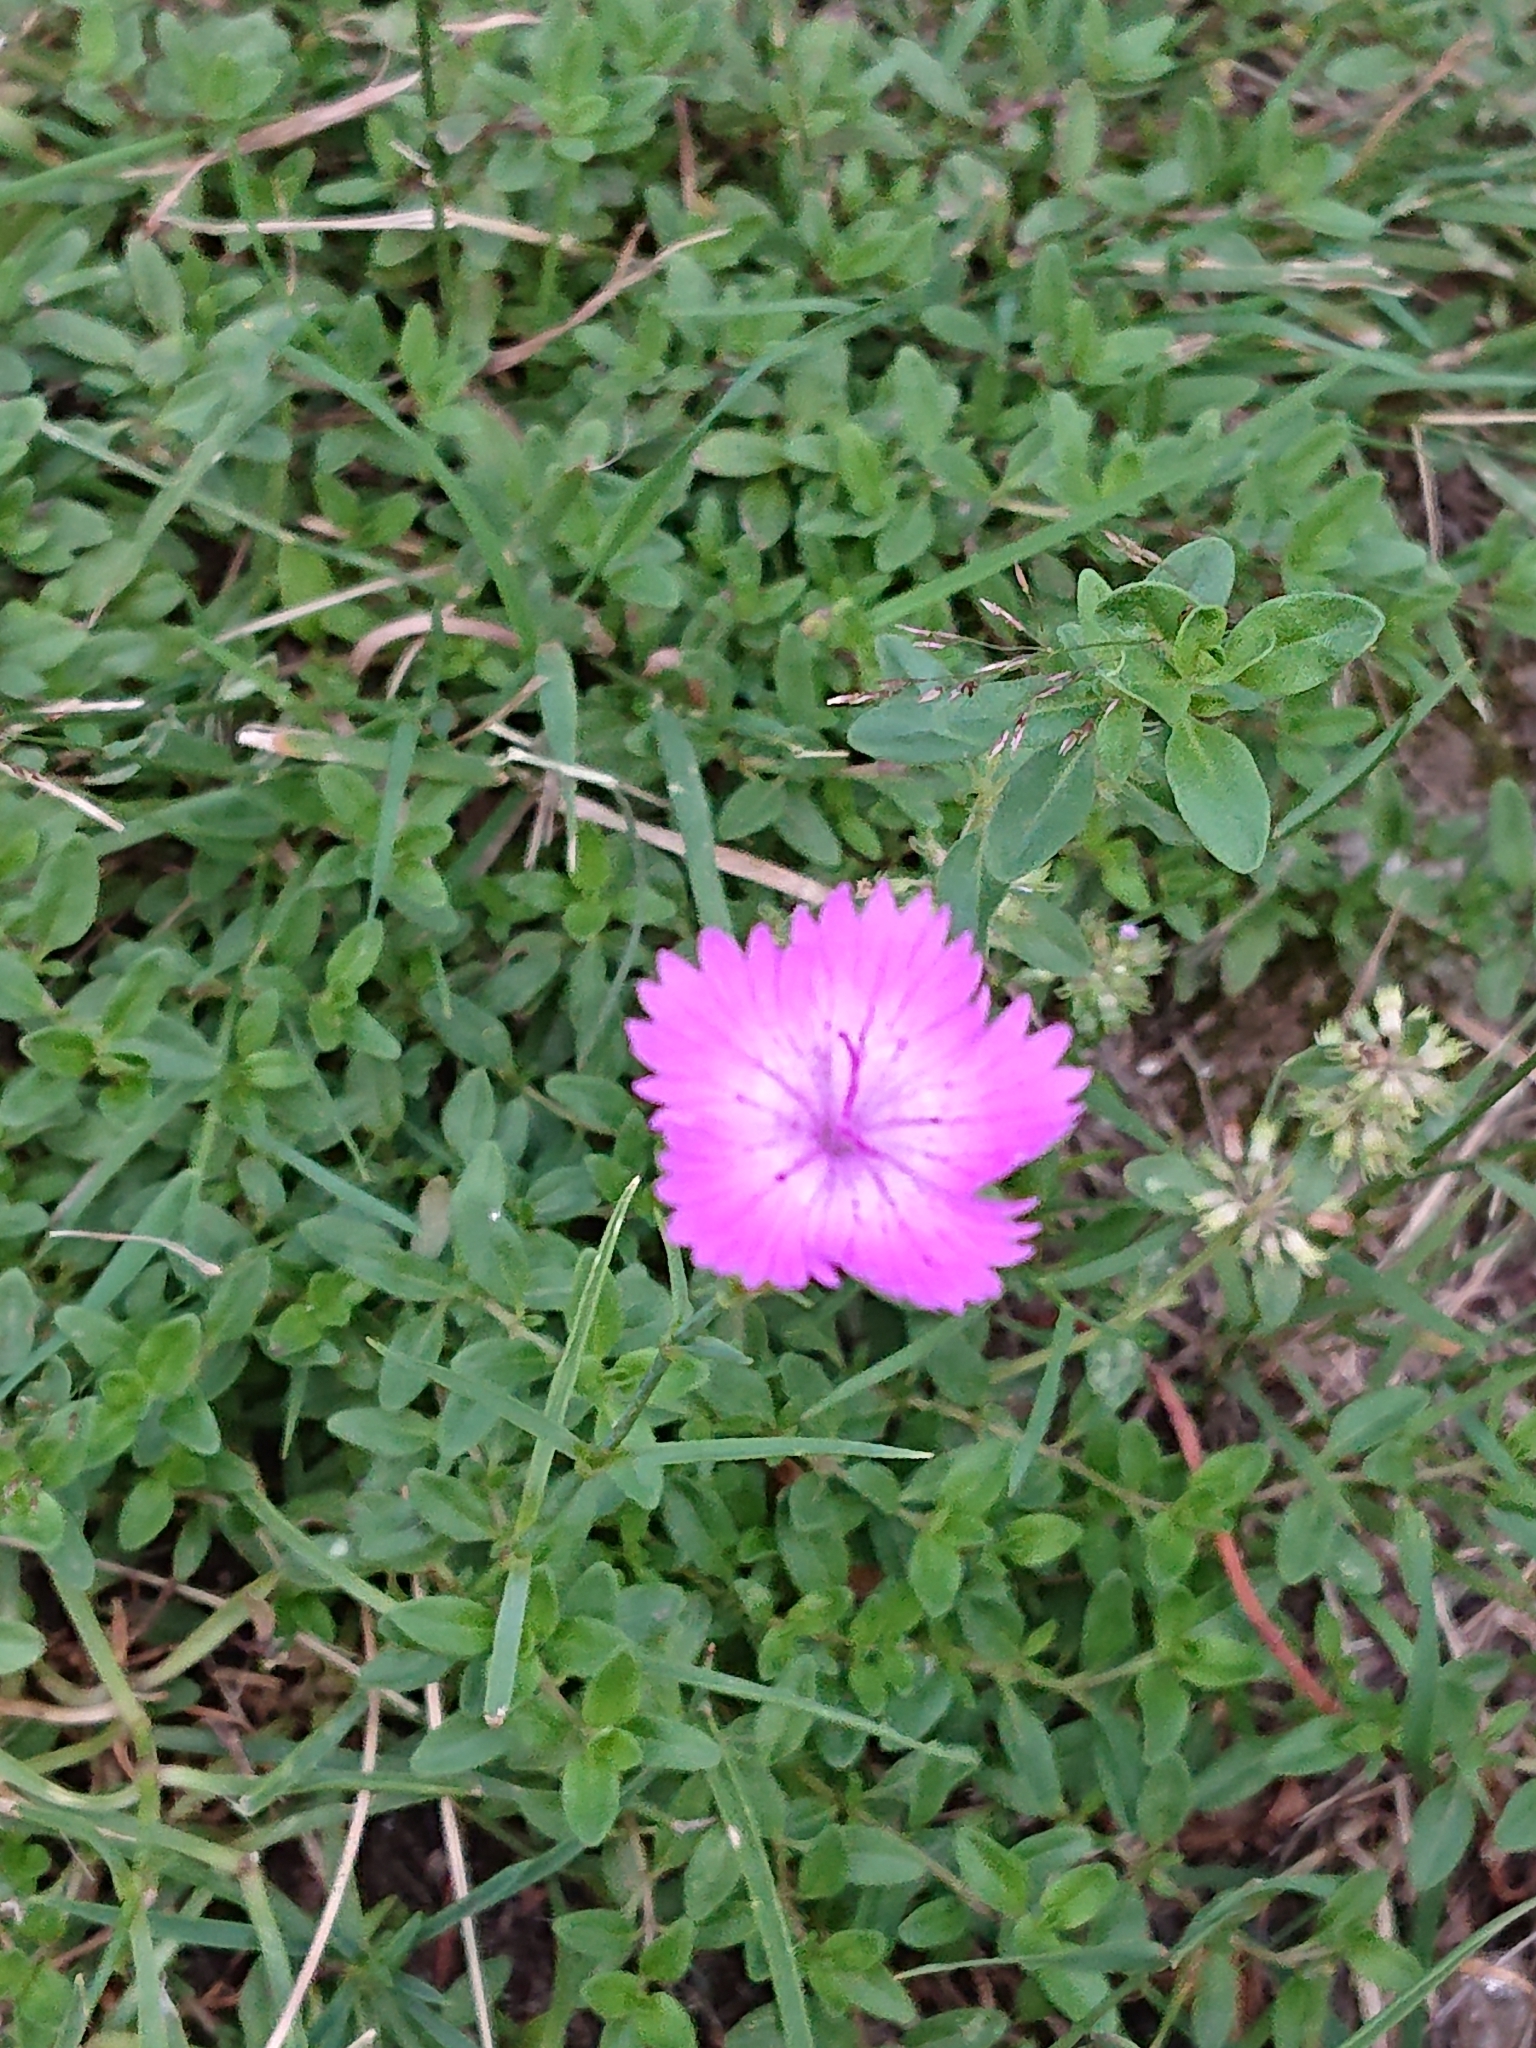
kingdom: Plantae
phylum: Tracheophyta
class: Magnoliopsida
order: Caryophyllales
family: Caryophyllaceae
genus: Dianthus
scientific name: Dianthus seguieri
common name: Ragged pink
